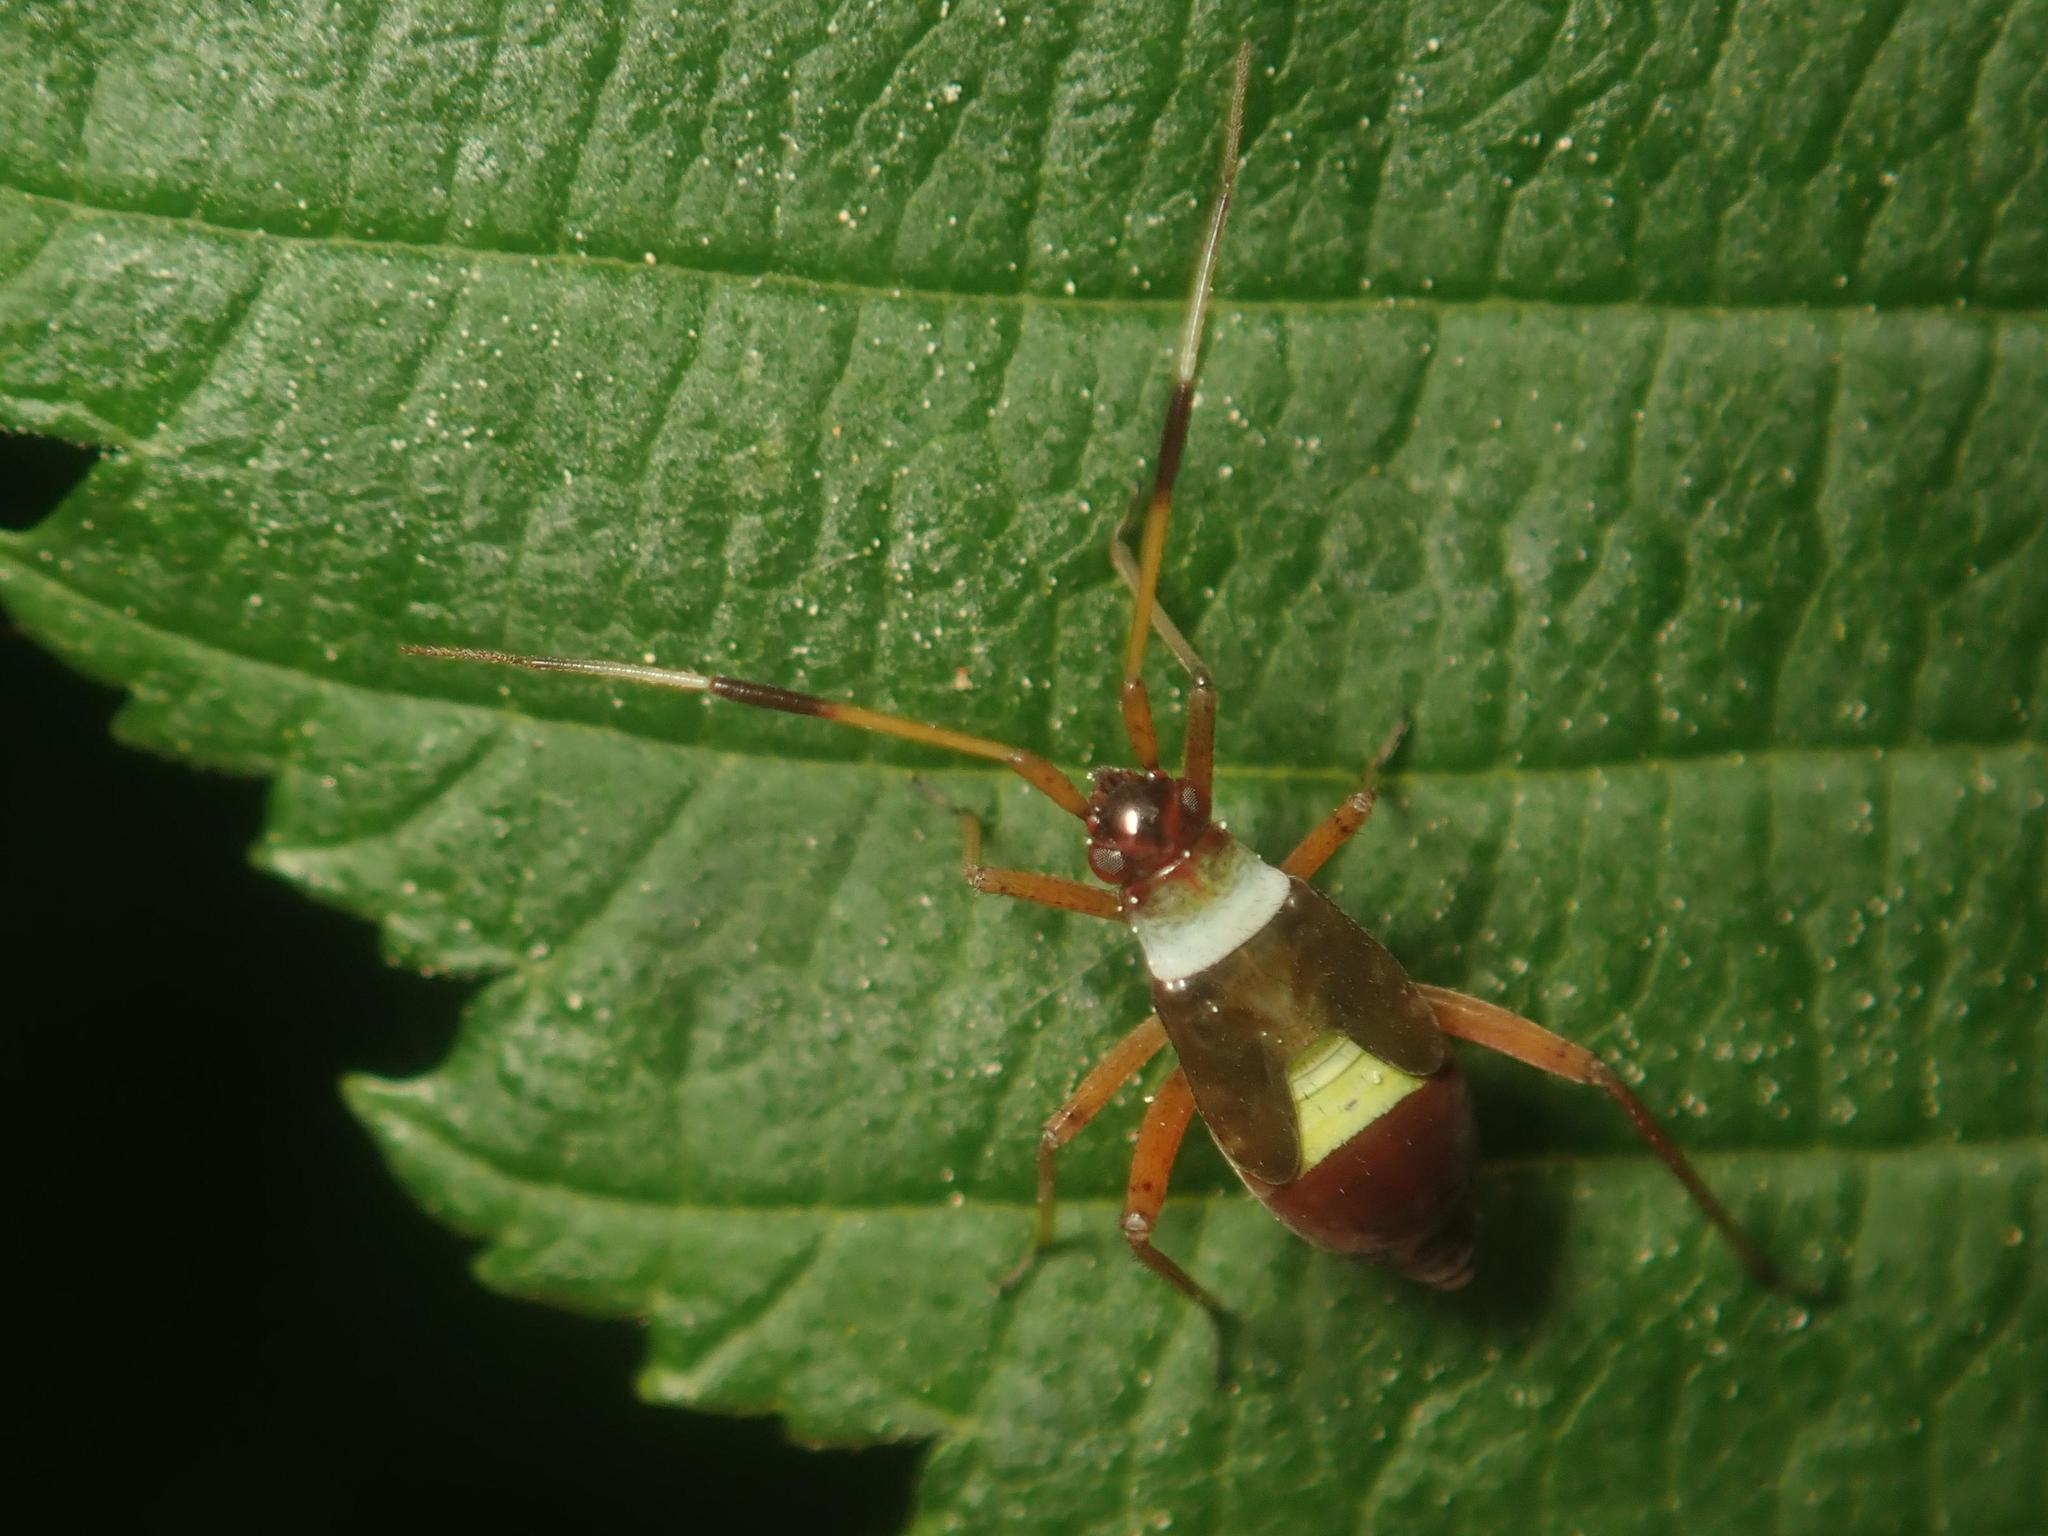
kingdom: Animalia
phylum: Arthropoda
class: Insecta
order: Hemiptera
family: Miridae
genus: Closterotomus
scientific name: Closterotomus biclavatus
